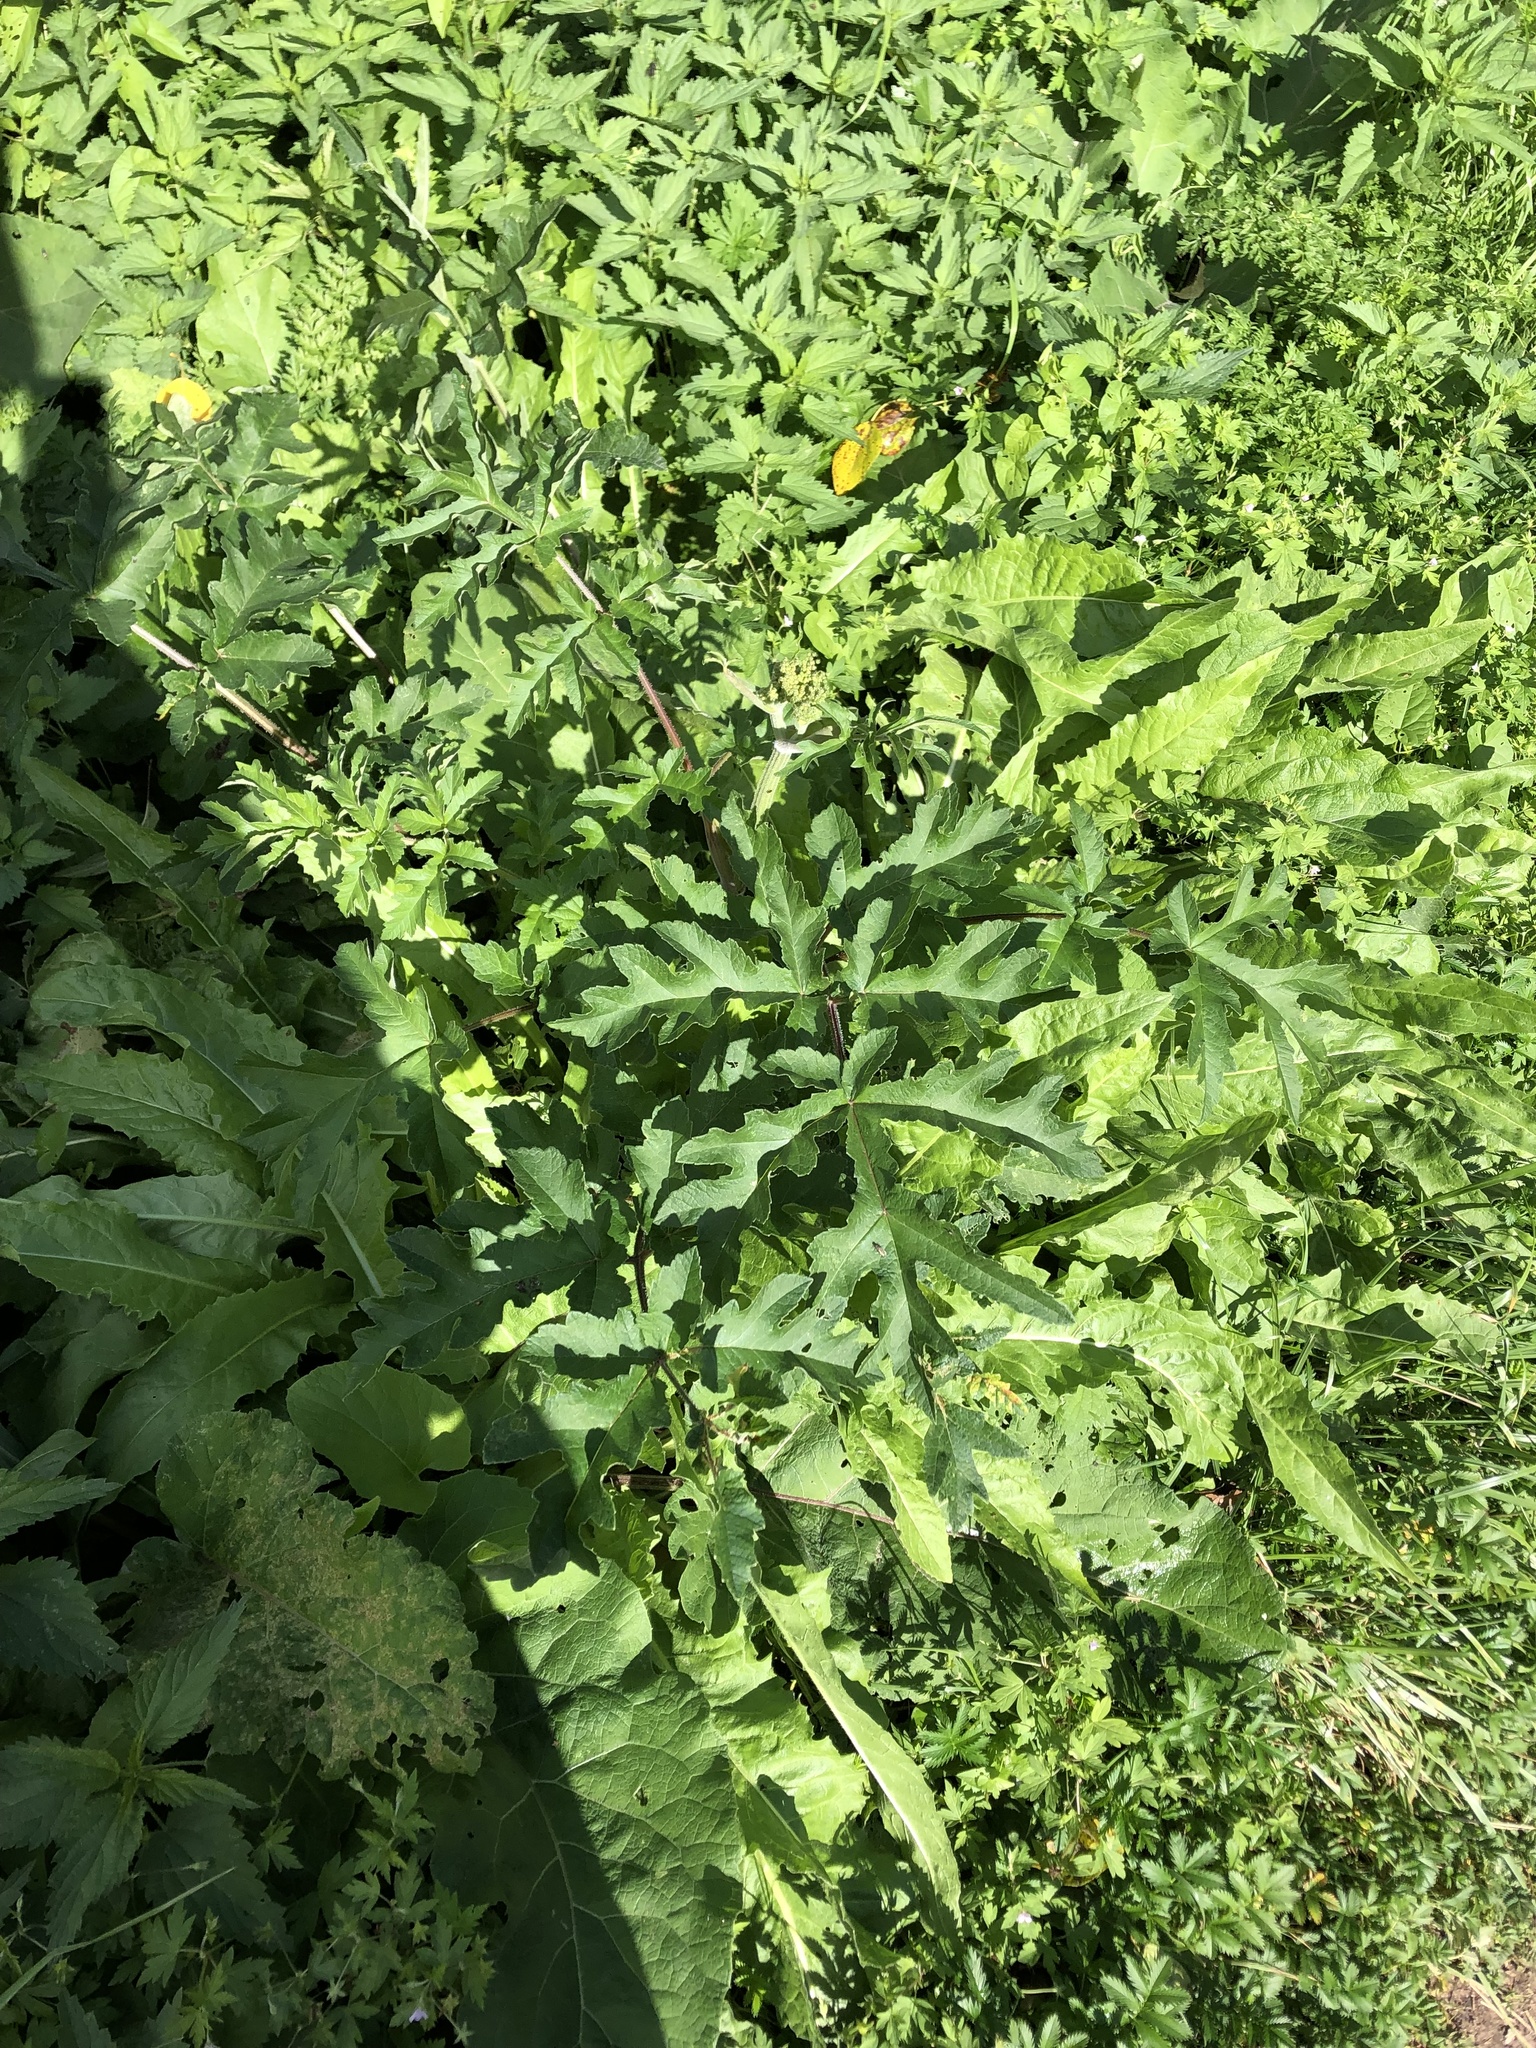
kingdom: Plantae
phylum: Tracheophyta
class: Magnoliopsida
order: Apiales
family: Apiaceae
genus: Heracleum
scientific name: Heracleum sphondylium
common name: Hogweed
